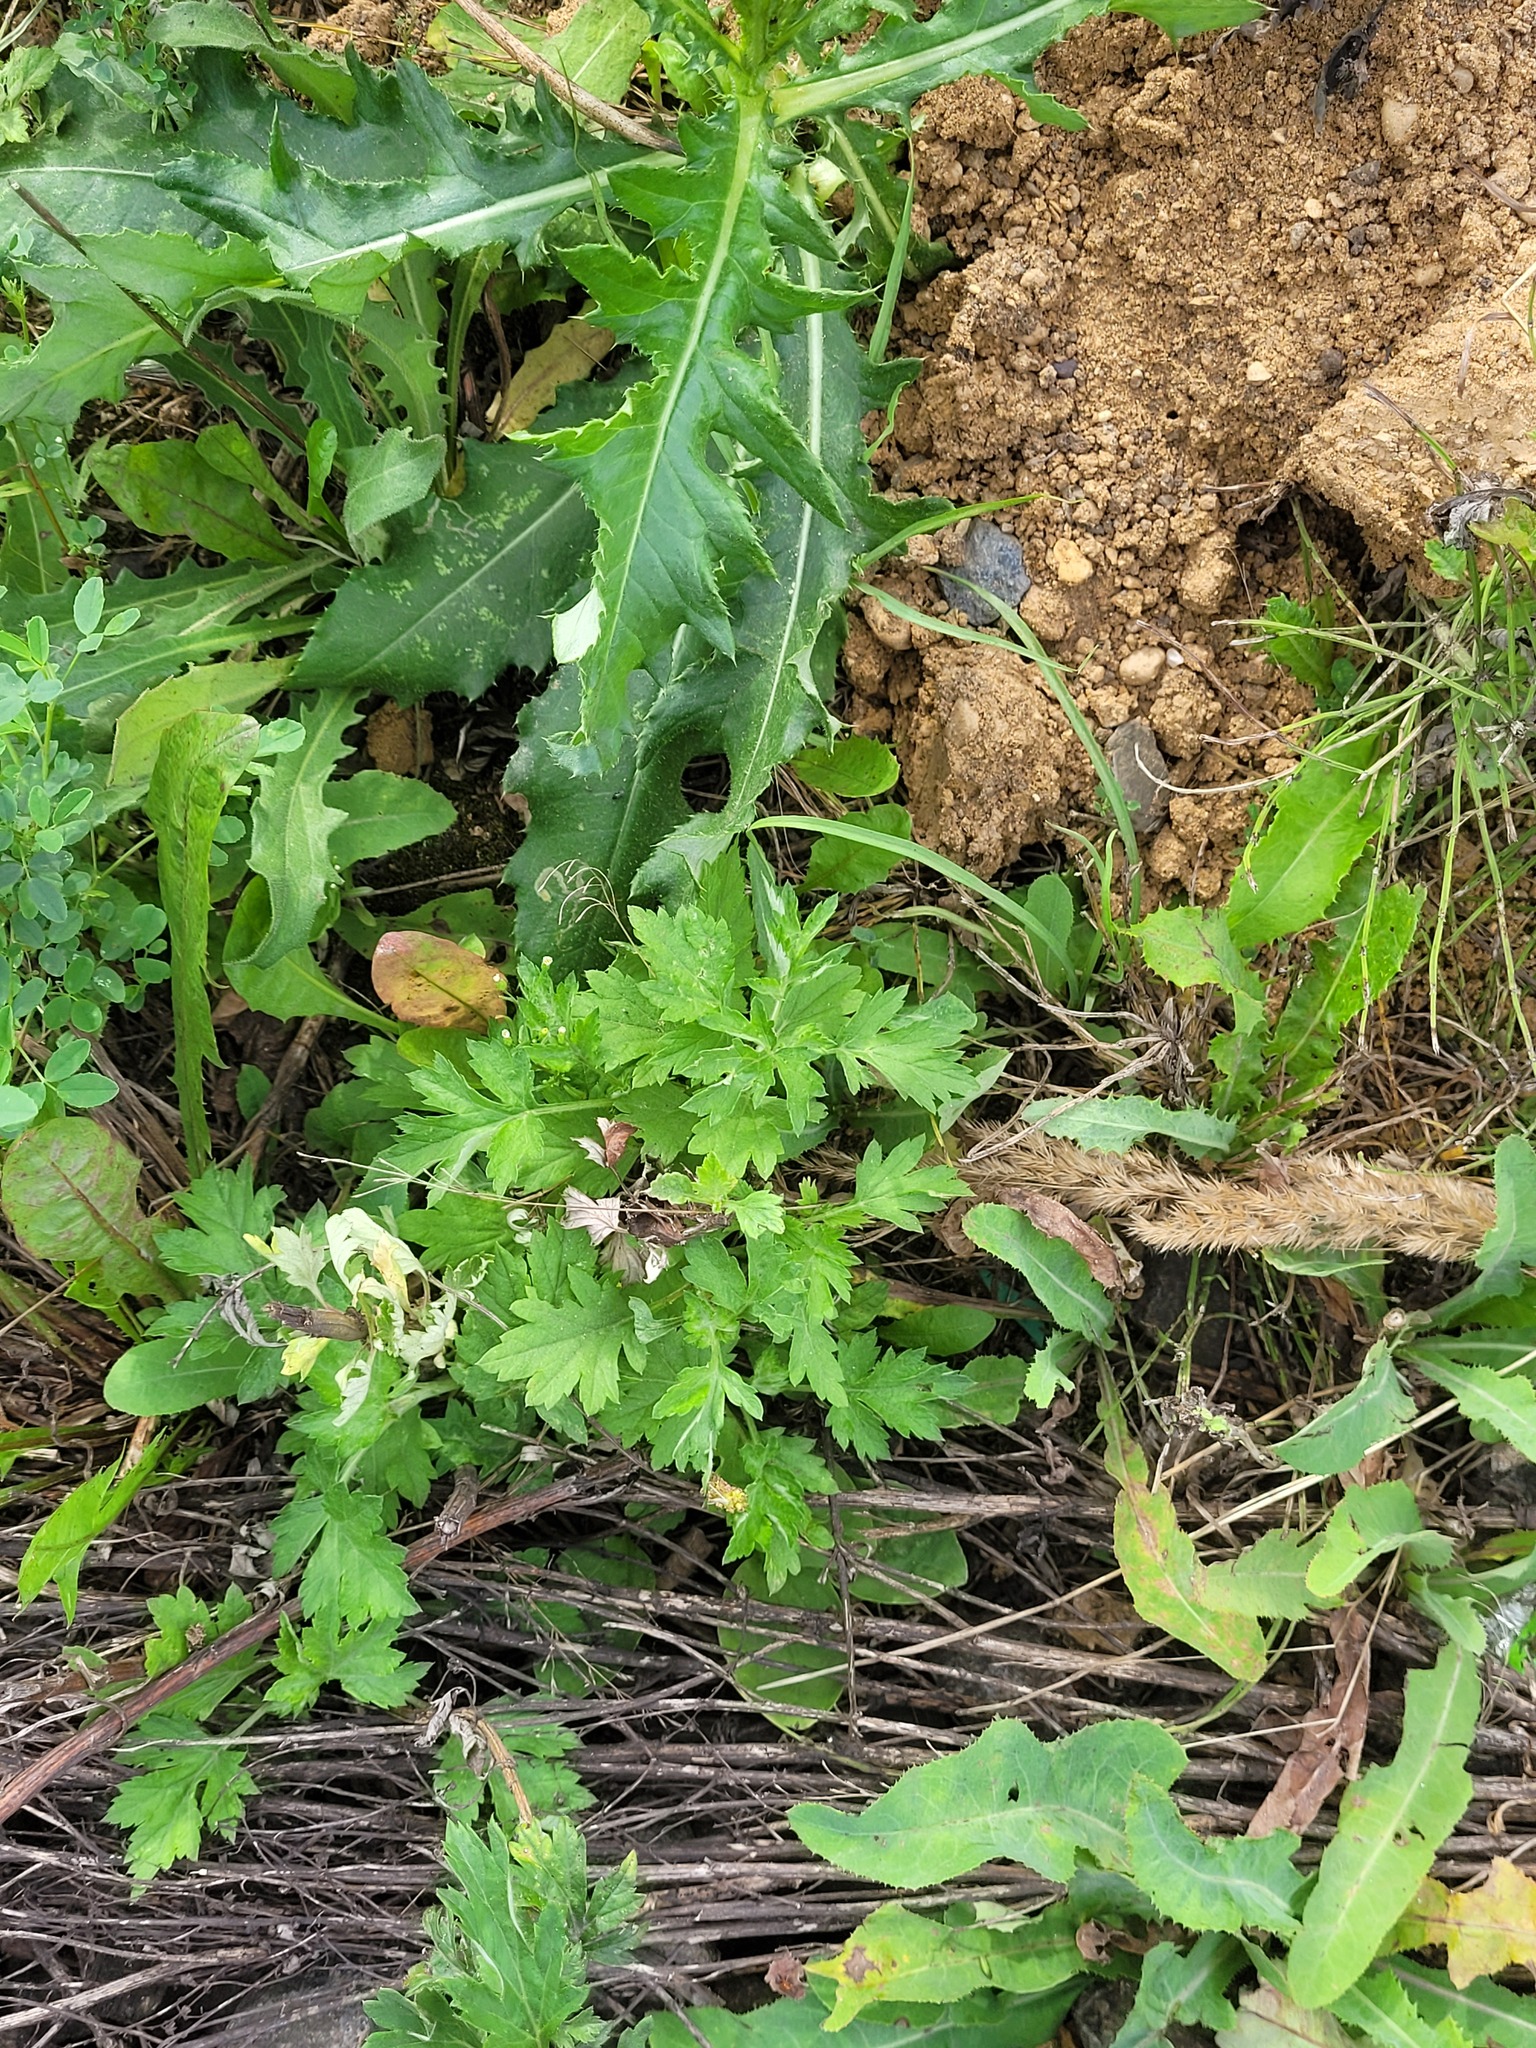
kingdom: Plantae
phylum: Tracheophyta
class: Magnoliopsida
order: Asterales
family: Asteraceae
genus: Artemisia
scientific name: Artemisia vulgaris
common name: Mugwort
